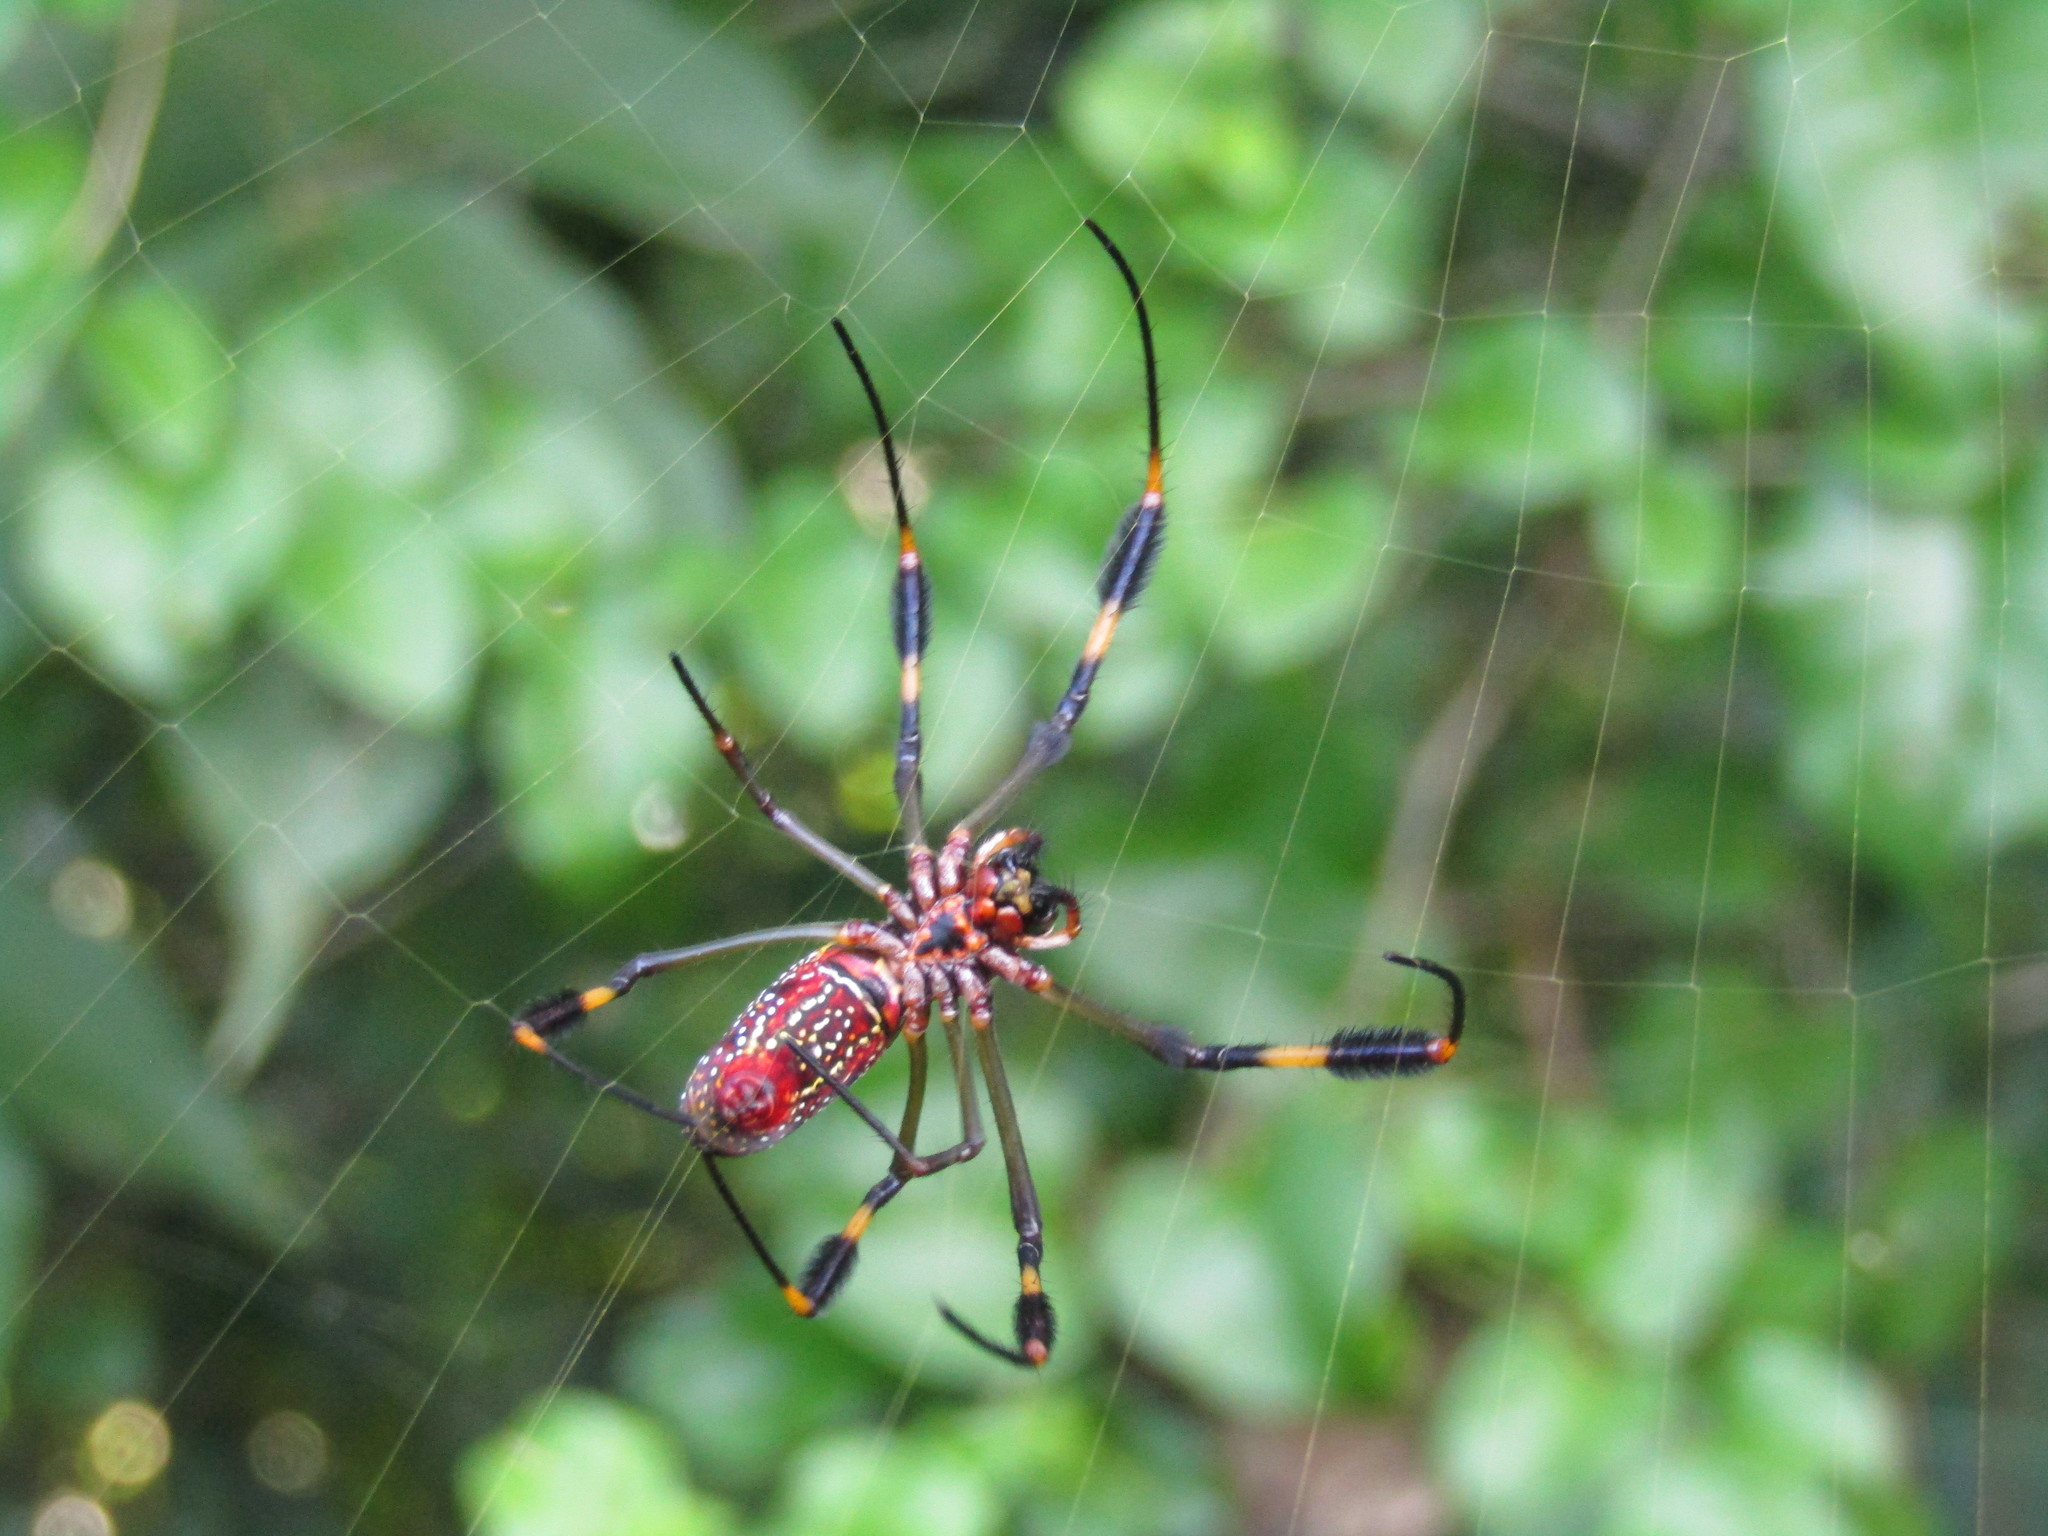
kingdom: Animalia
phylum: Arthropoda
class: Arachnida
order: Araneae
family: Araneidae
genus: Trichonephila
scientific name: Trichonephila clavipes
